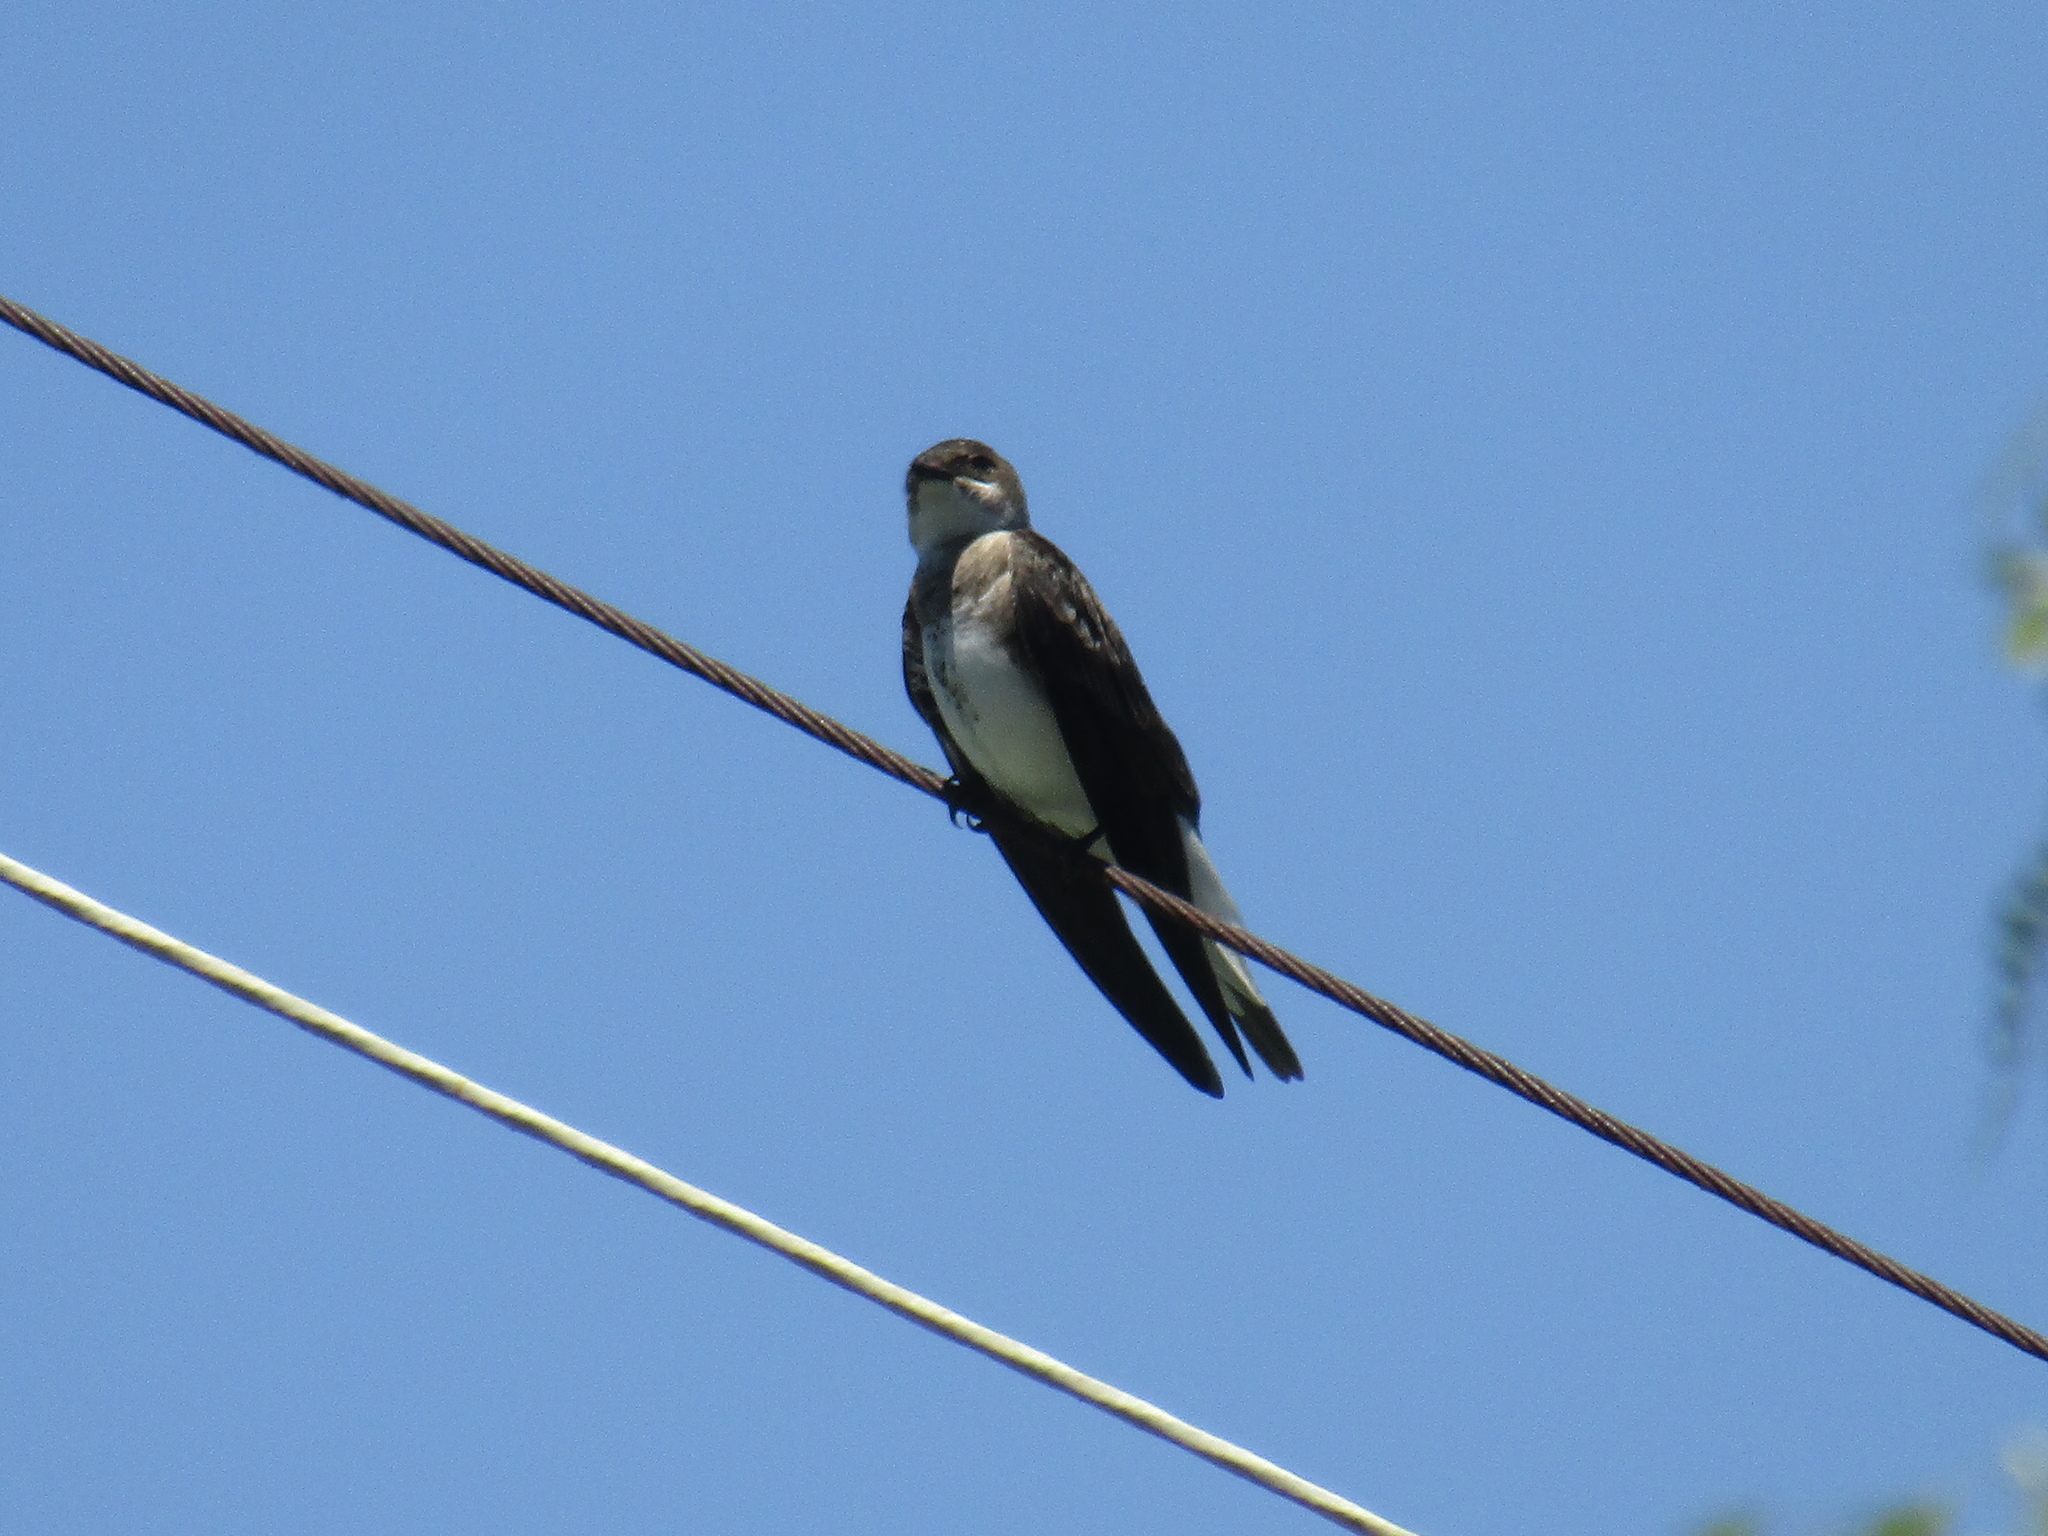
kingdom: Animalia
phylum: Chordata
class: Aves
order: Passeriformes
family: Hirundinidae
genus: Progne
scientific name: Progne tapera
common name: Brown-chested martin
